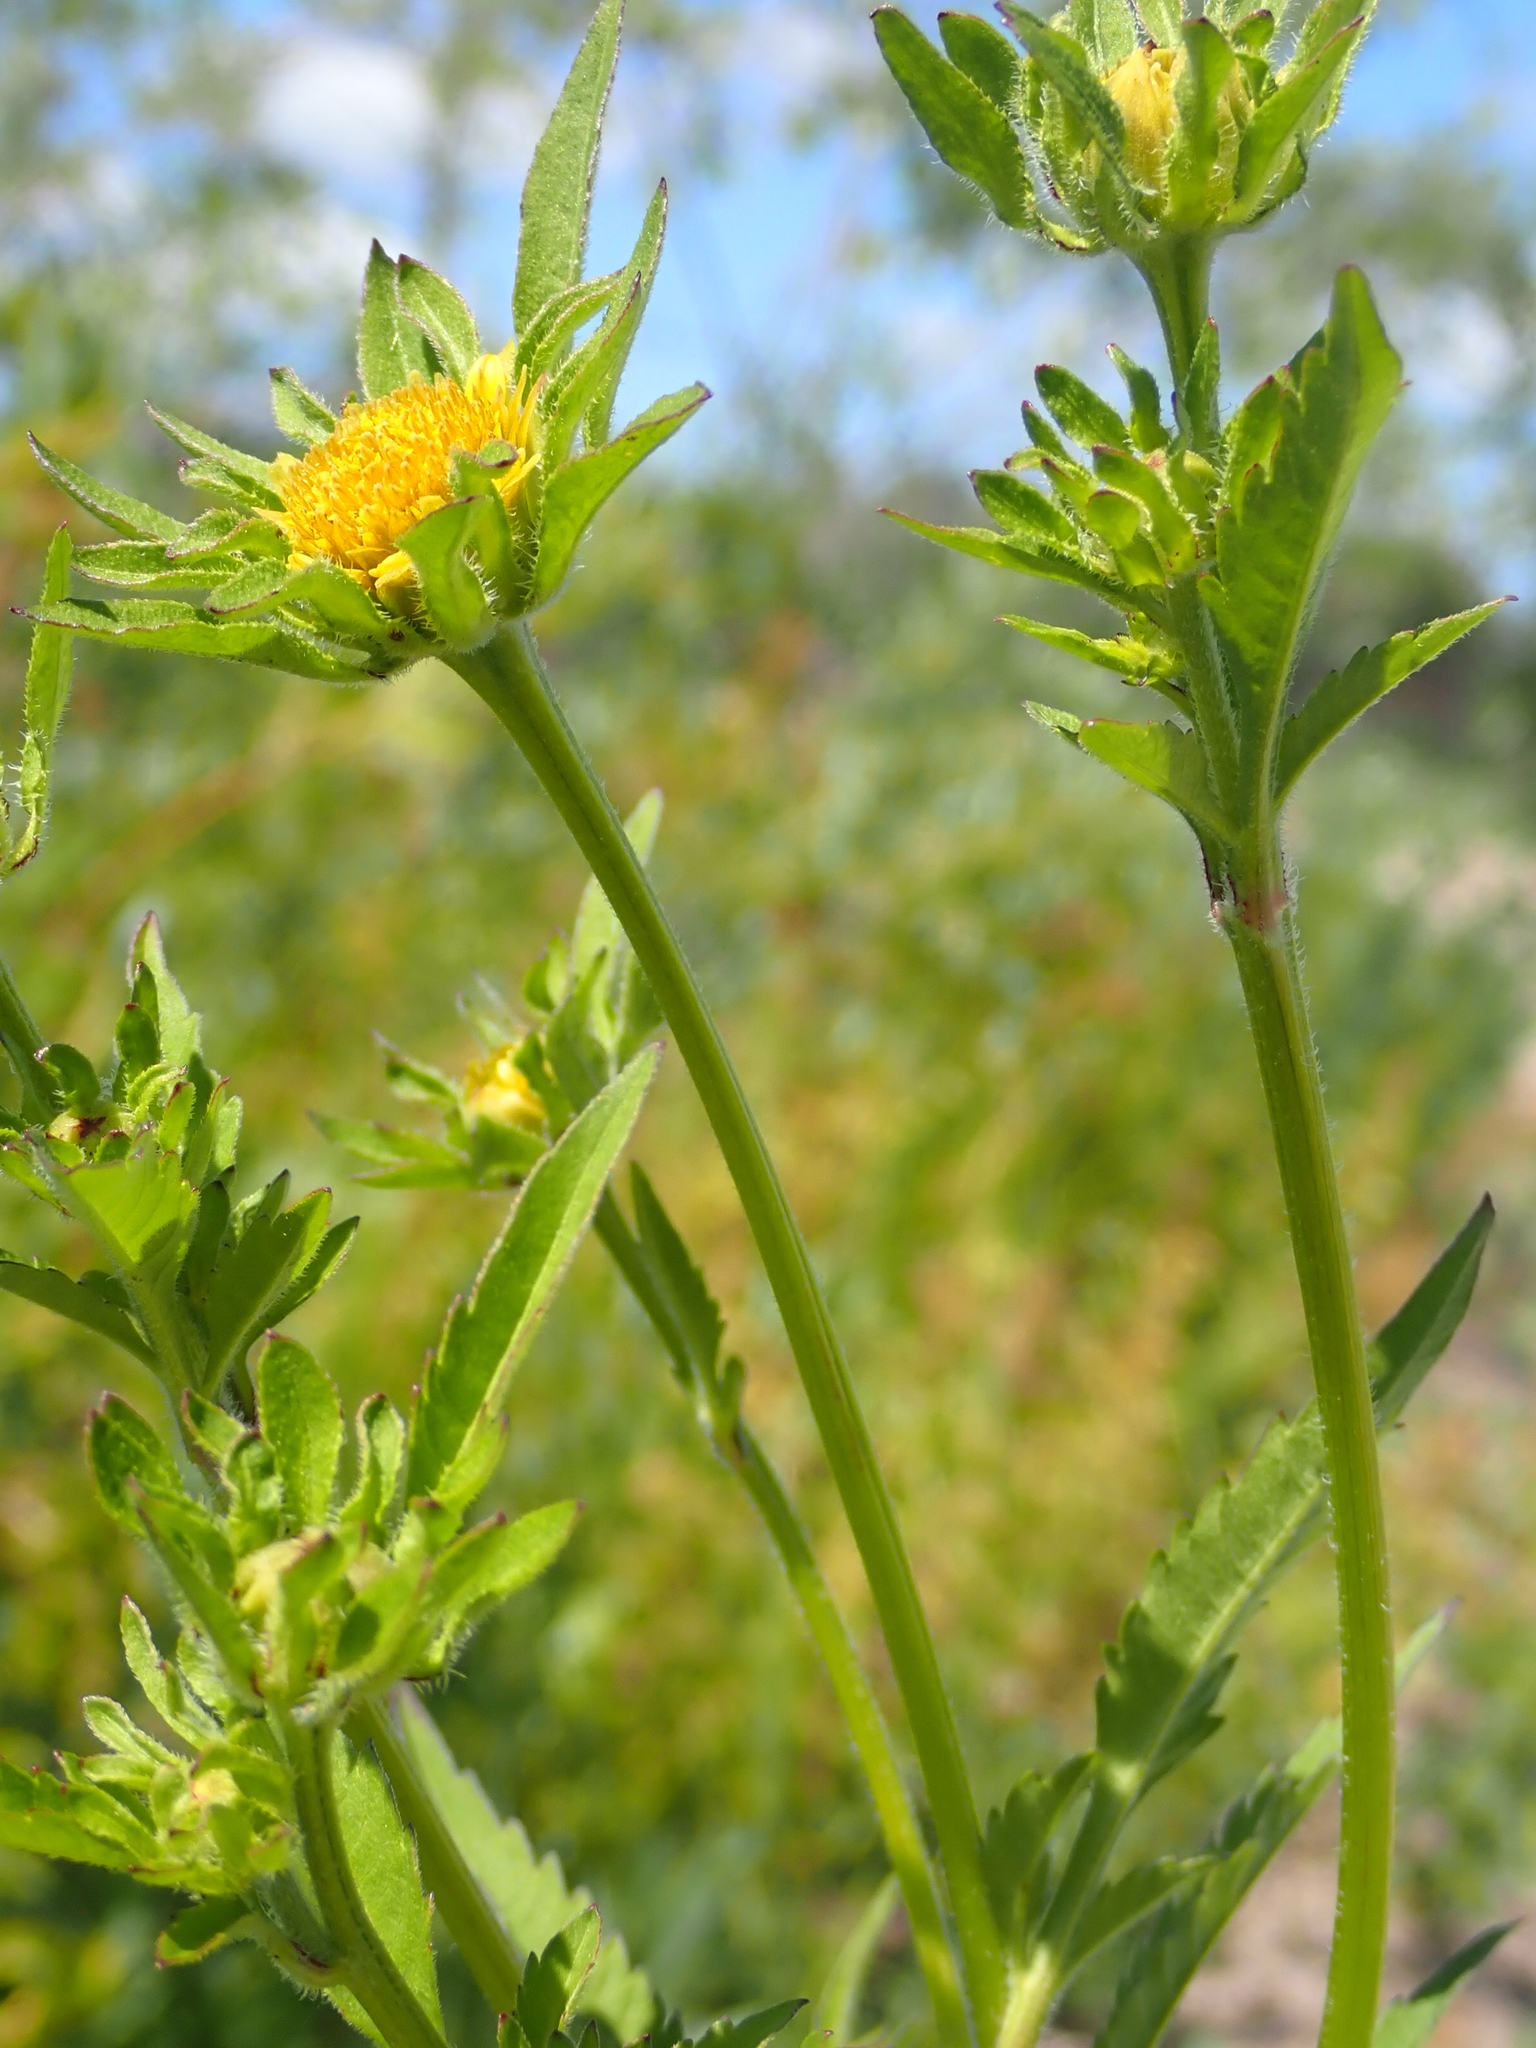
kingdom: Plantae
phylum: Tracheophyta
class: Magnoliopsida
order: Asterales
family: Asteraceae
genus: Bidens
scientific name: Bidens vulgata
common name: Tall beggarticks
